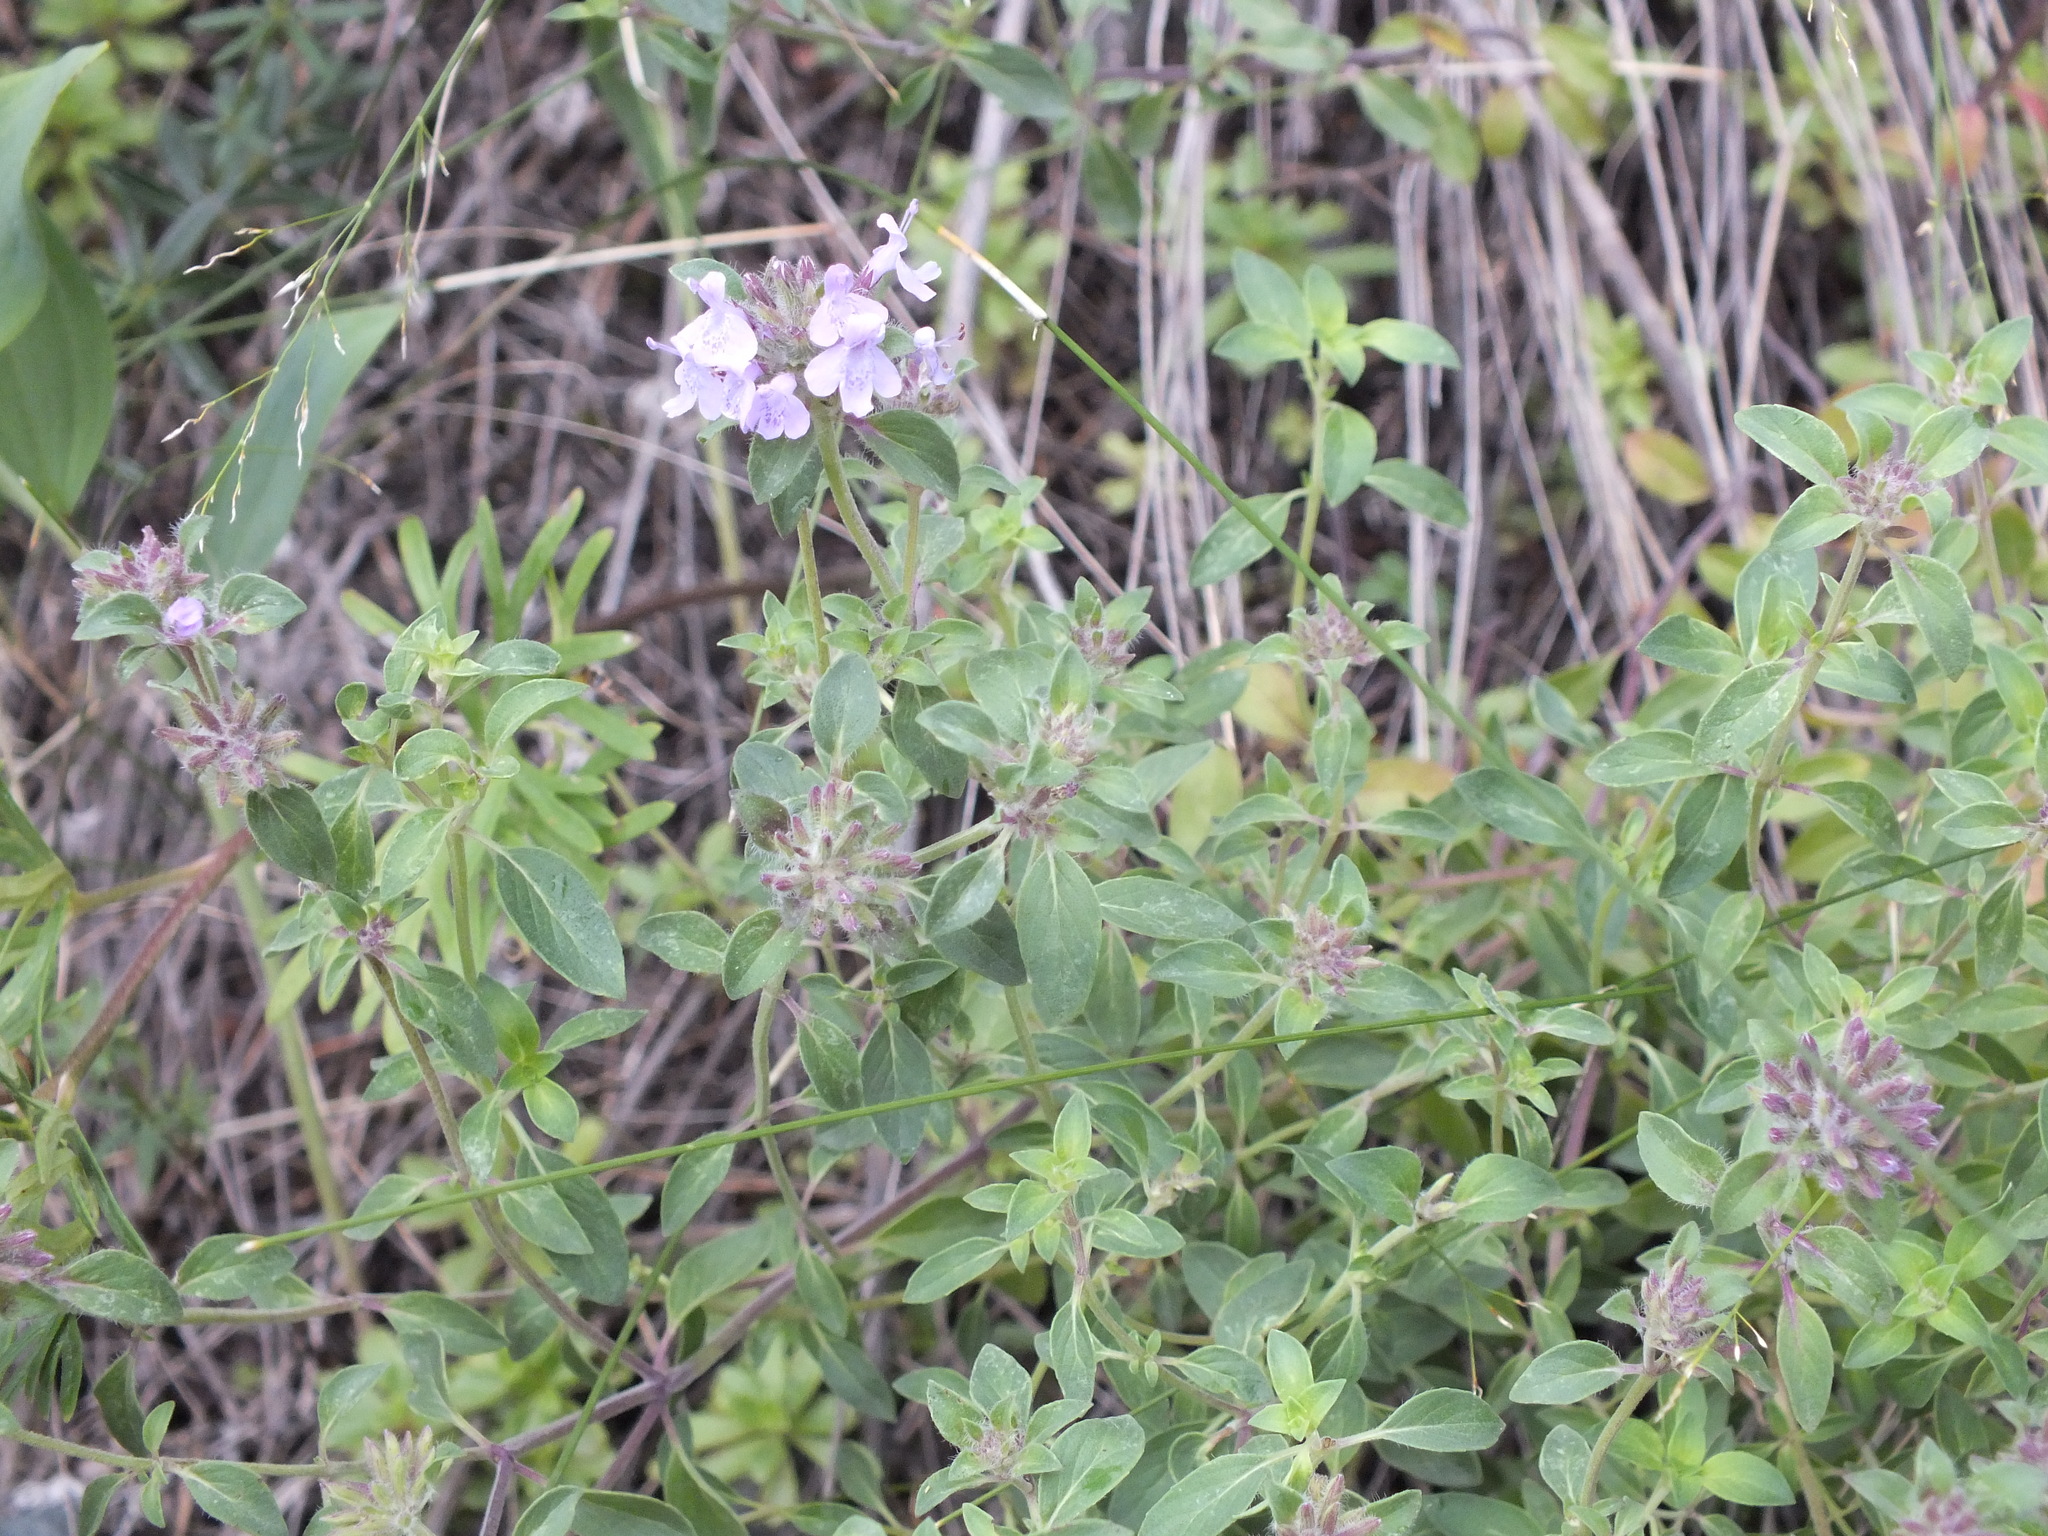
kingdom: Plantae
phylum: Tracheophyta
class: Magnoliopsida
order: Lamiales
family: Lamiaceae
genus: Ziziphora
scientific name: Ziziphora clinopodioides
